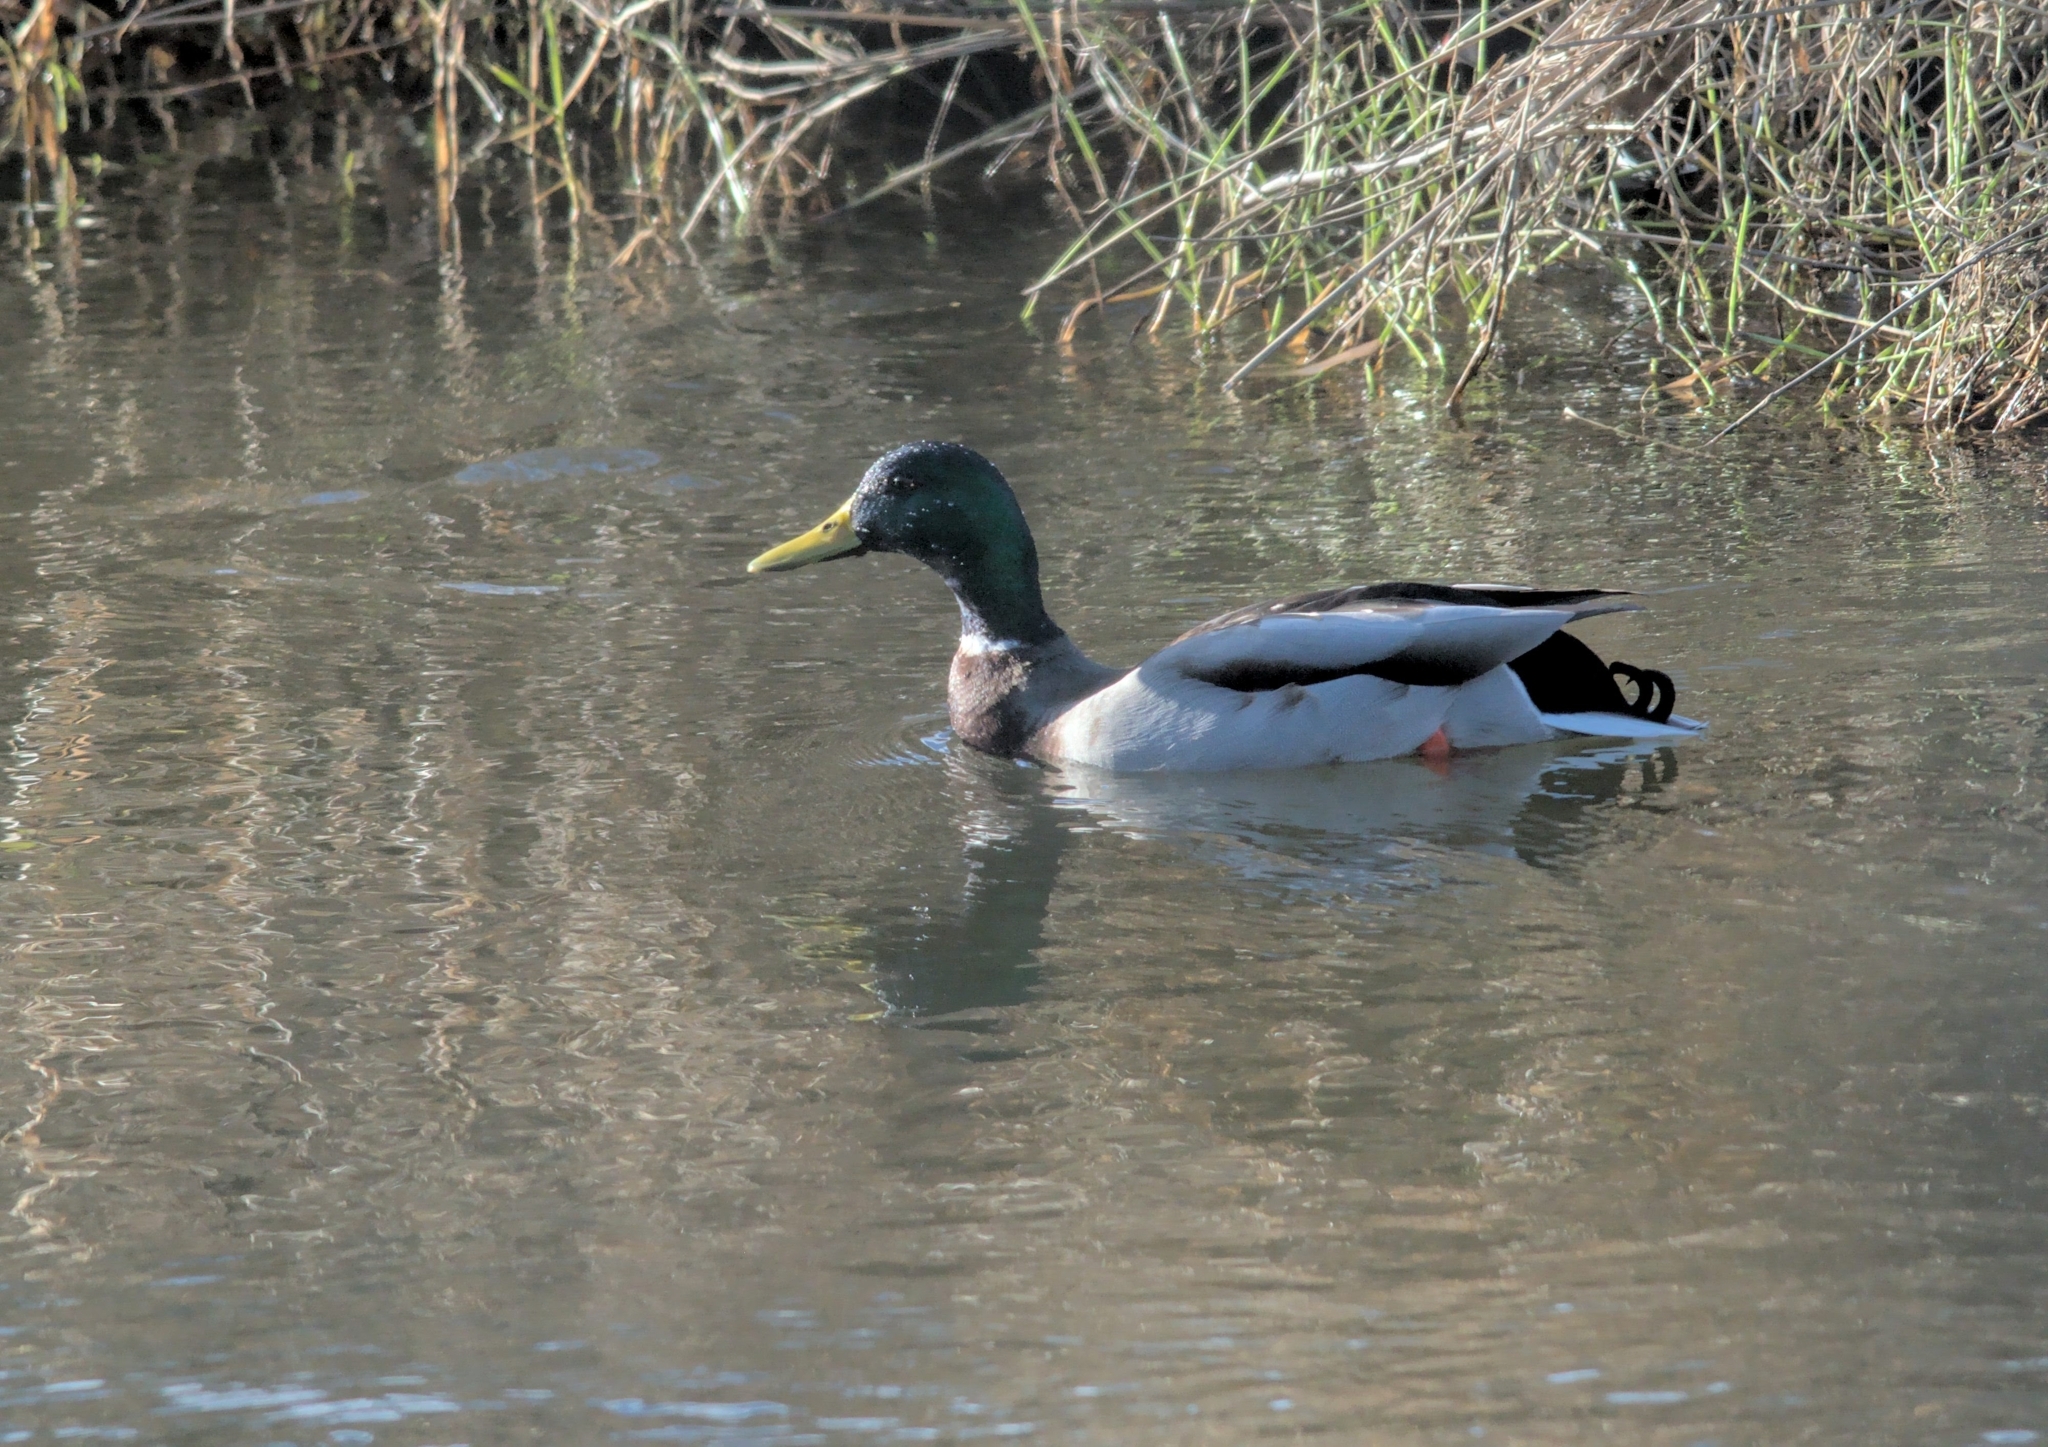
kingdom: Animalia
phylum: Chordata
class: Aves
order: Anseriformes
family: Anatidae
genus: Anas
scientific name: Anas platyrhynchos
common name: Mallard
